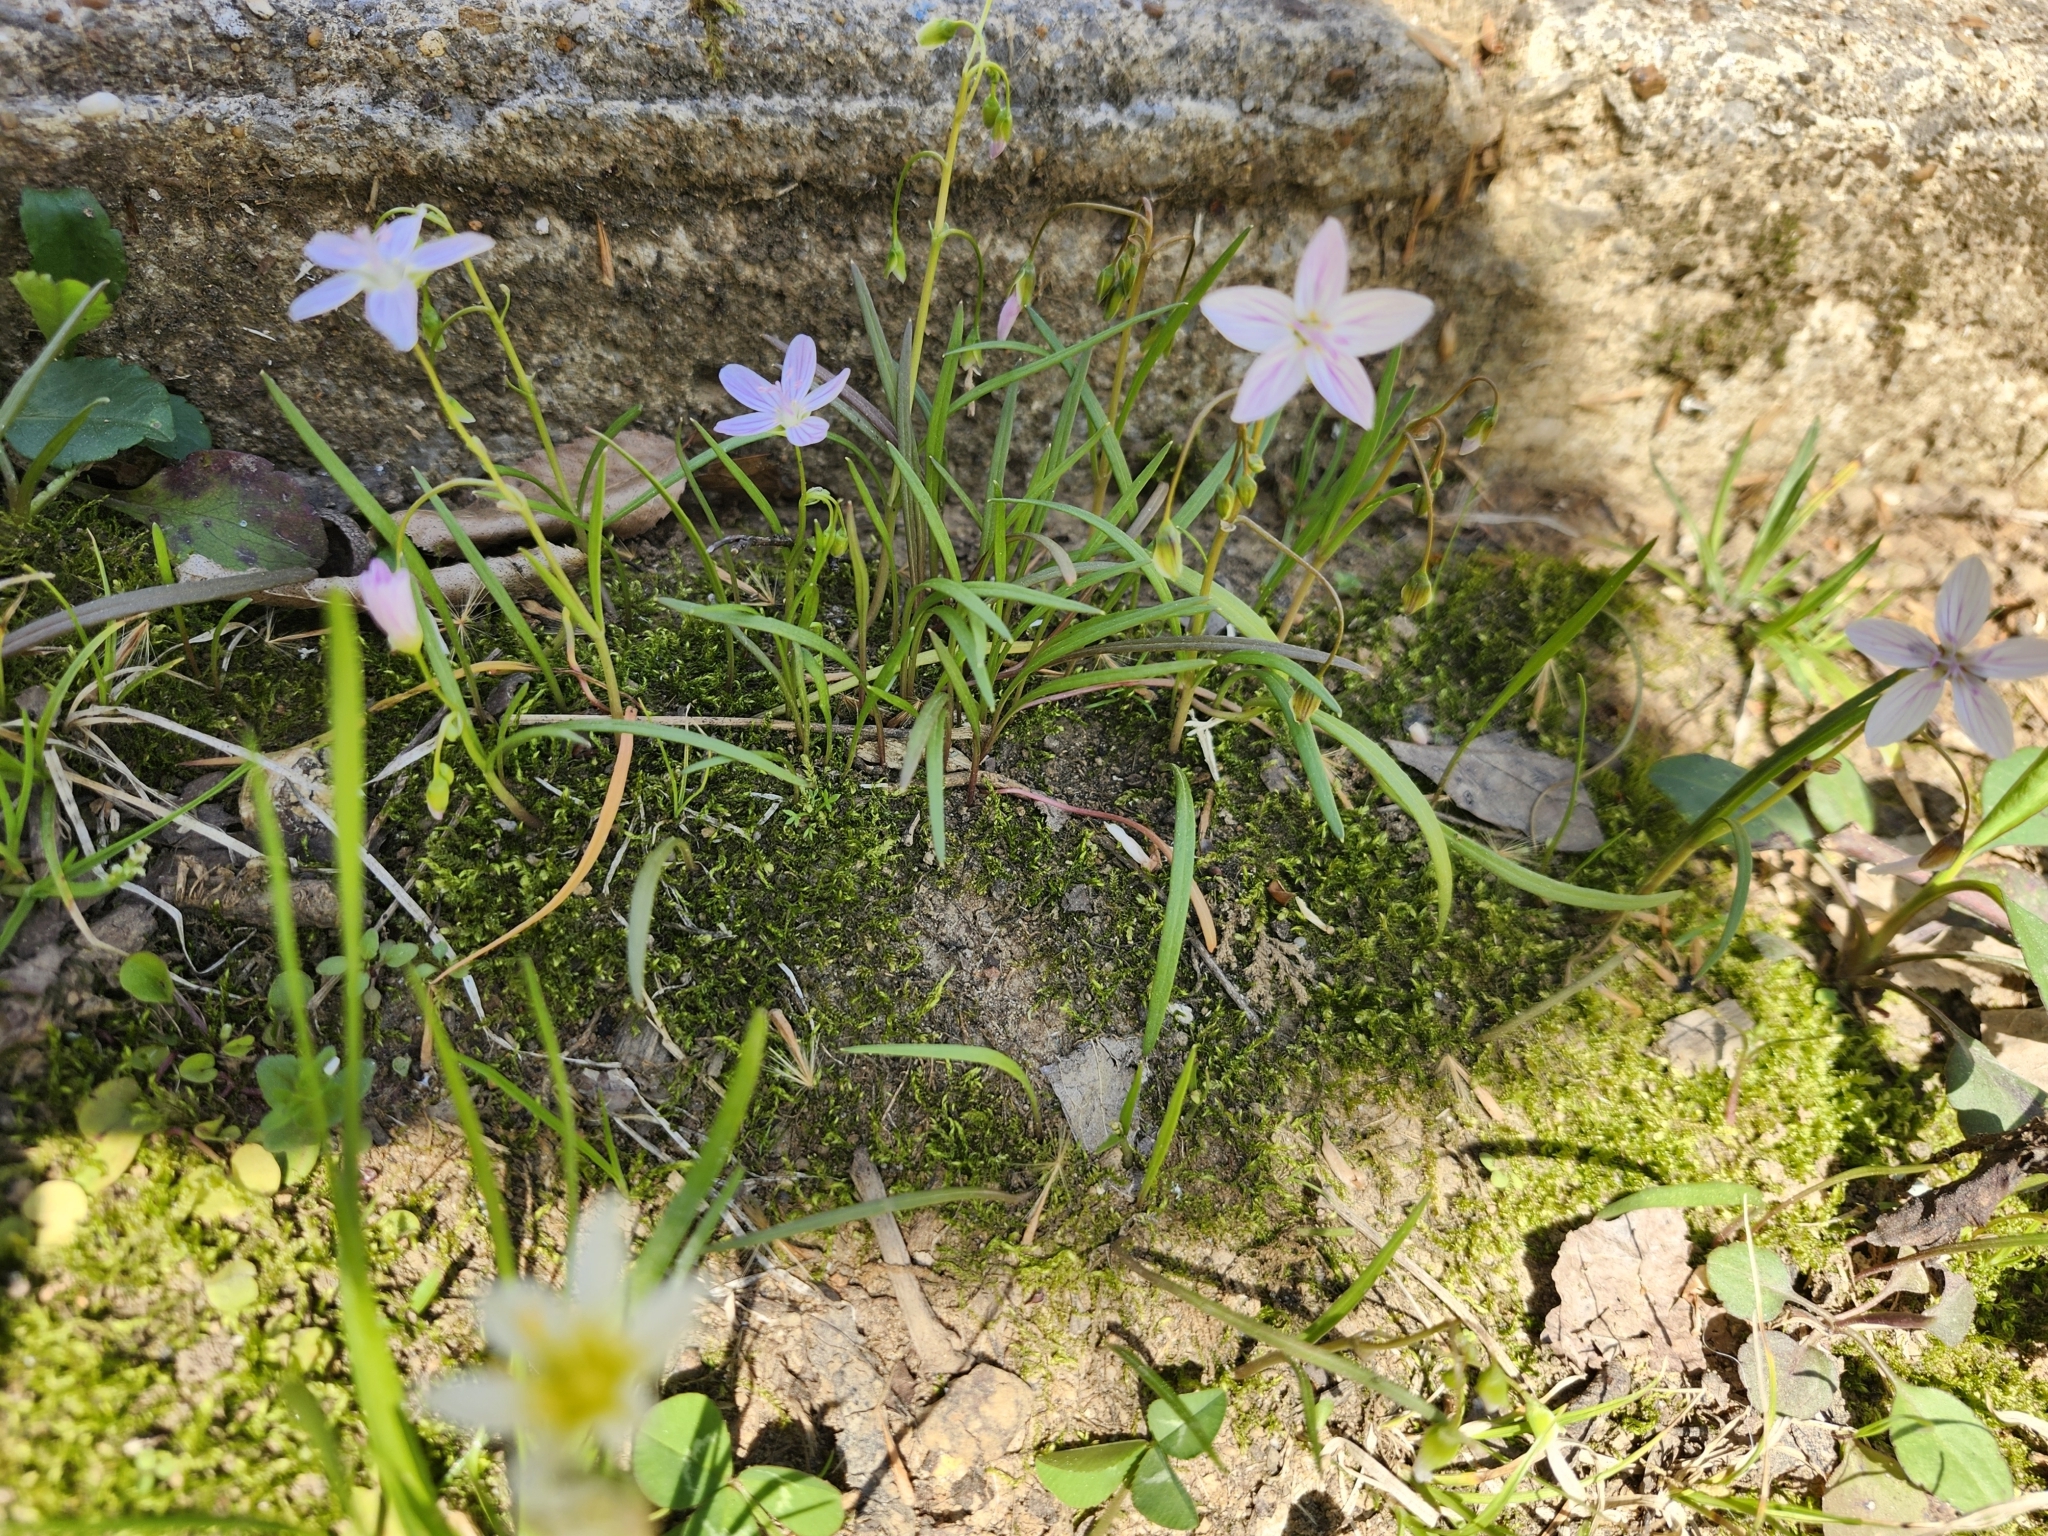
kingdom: Plantae
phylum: Tracheophyta
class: Magnoliopsida
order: Caryophyllales
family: Montiaceae
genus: Claytonia
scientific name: Claytonia virginica
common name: Virginia springbeauty
